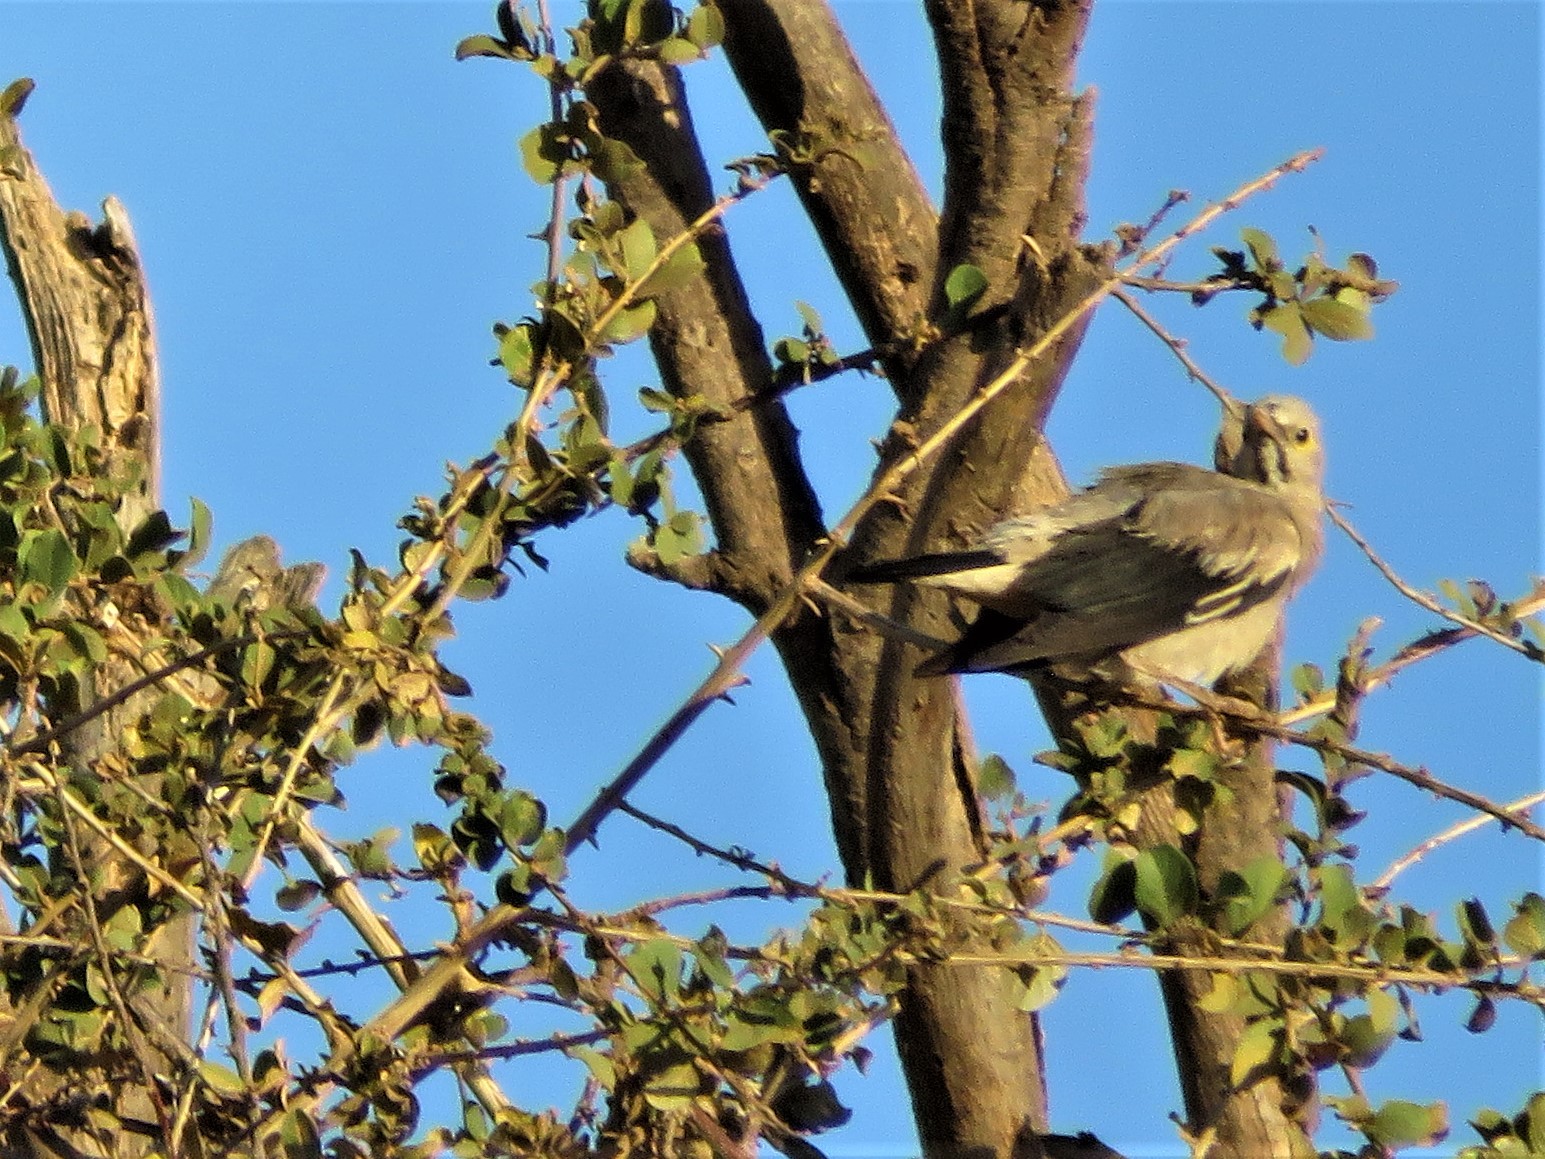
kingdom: Animalia
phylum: Chordata
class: Aves
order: Passeriformes
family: Sturnidae
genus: Creatophora
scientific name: Creatophora cinerea
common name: Wattled starling
